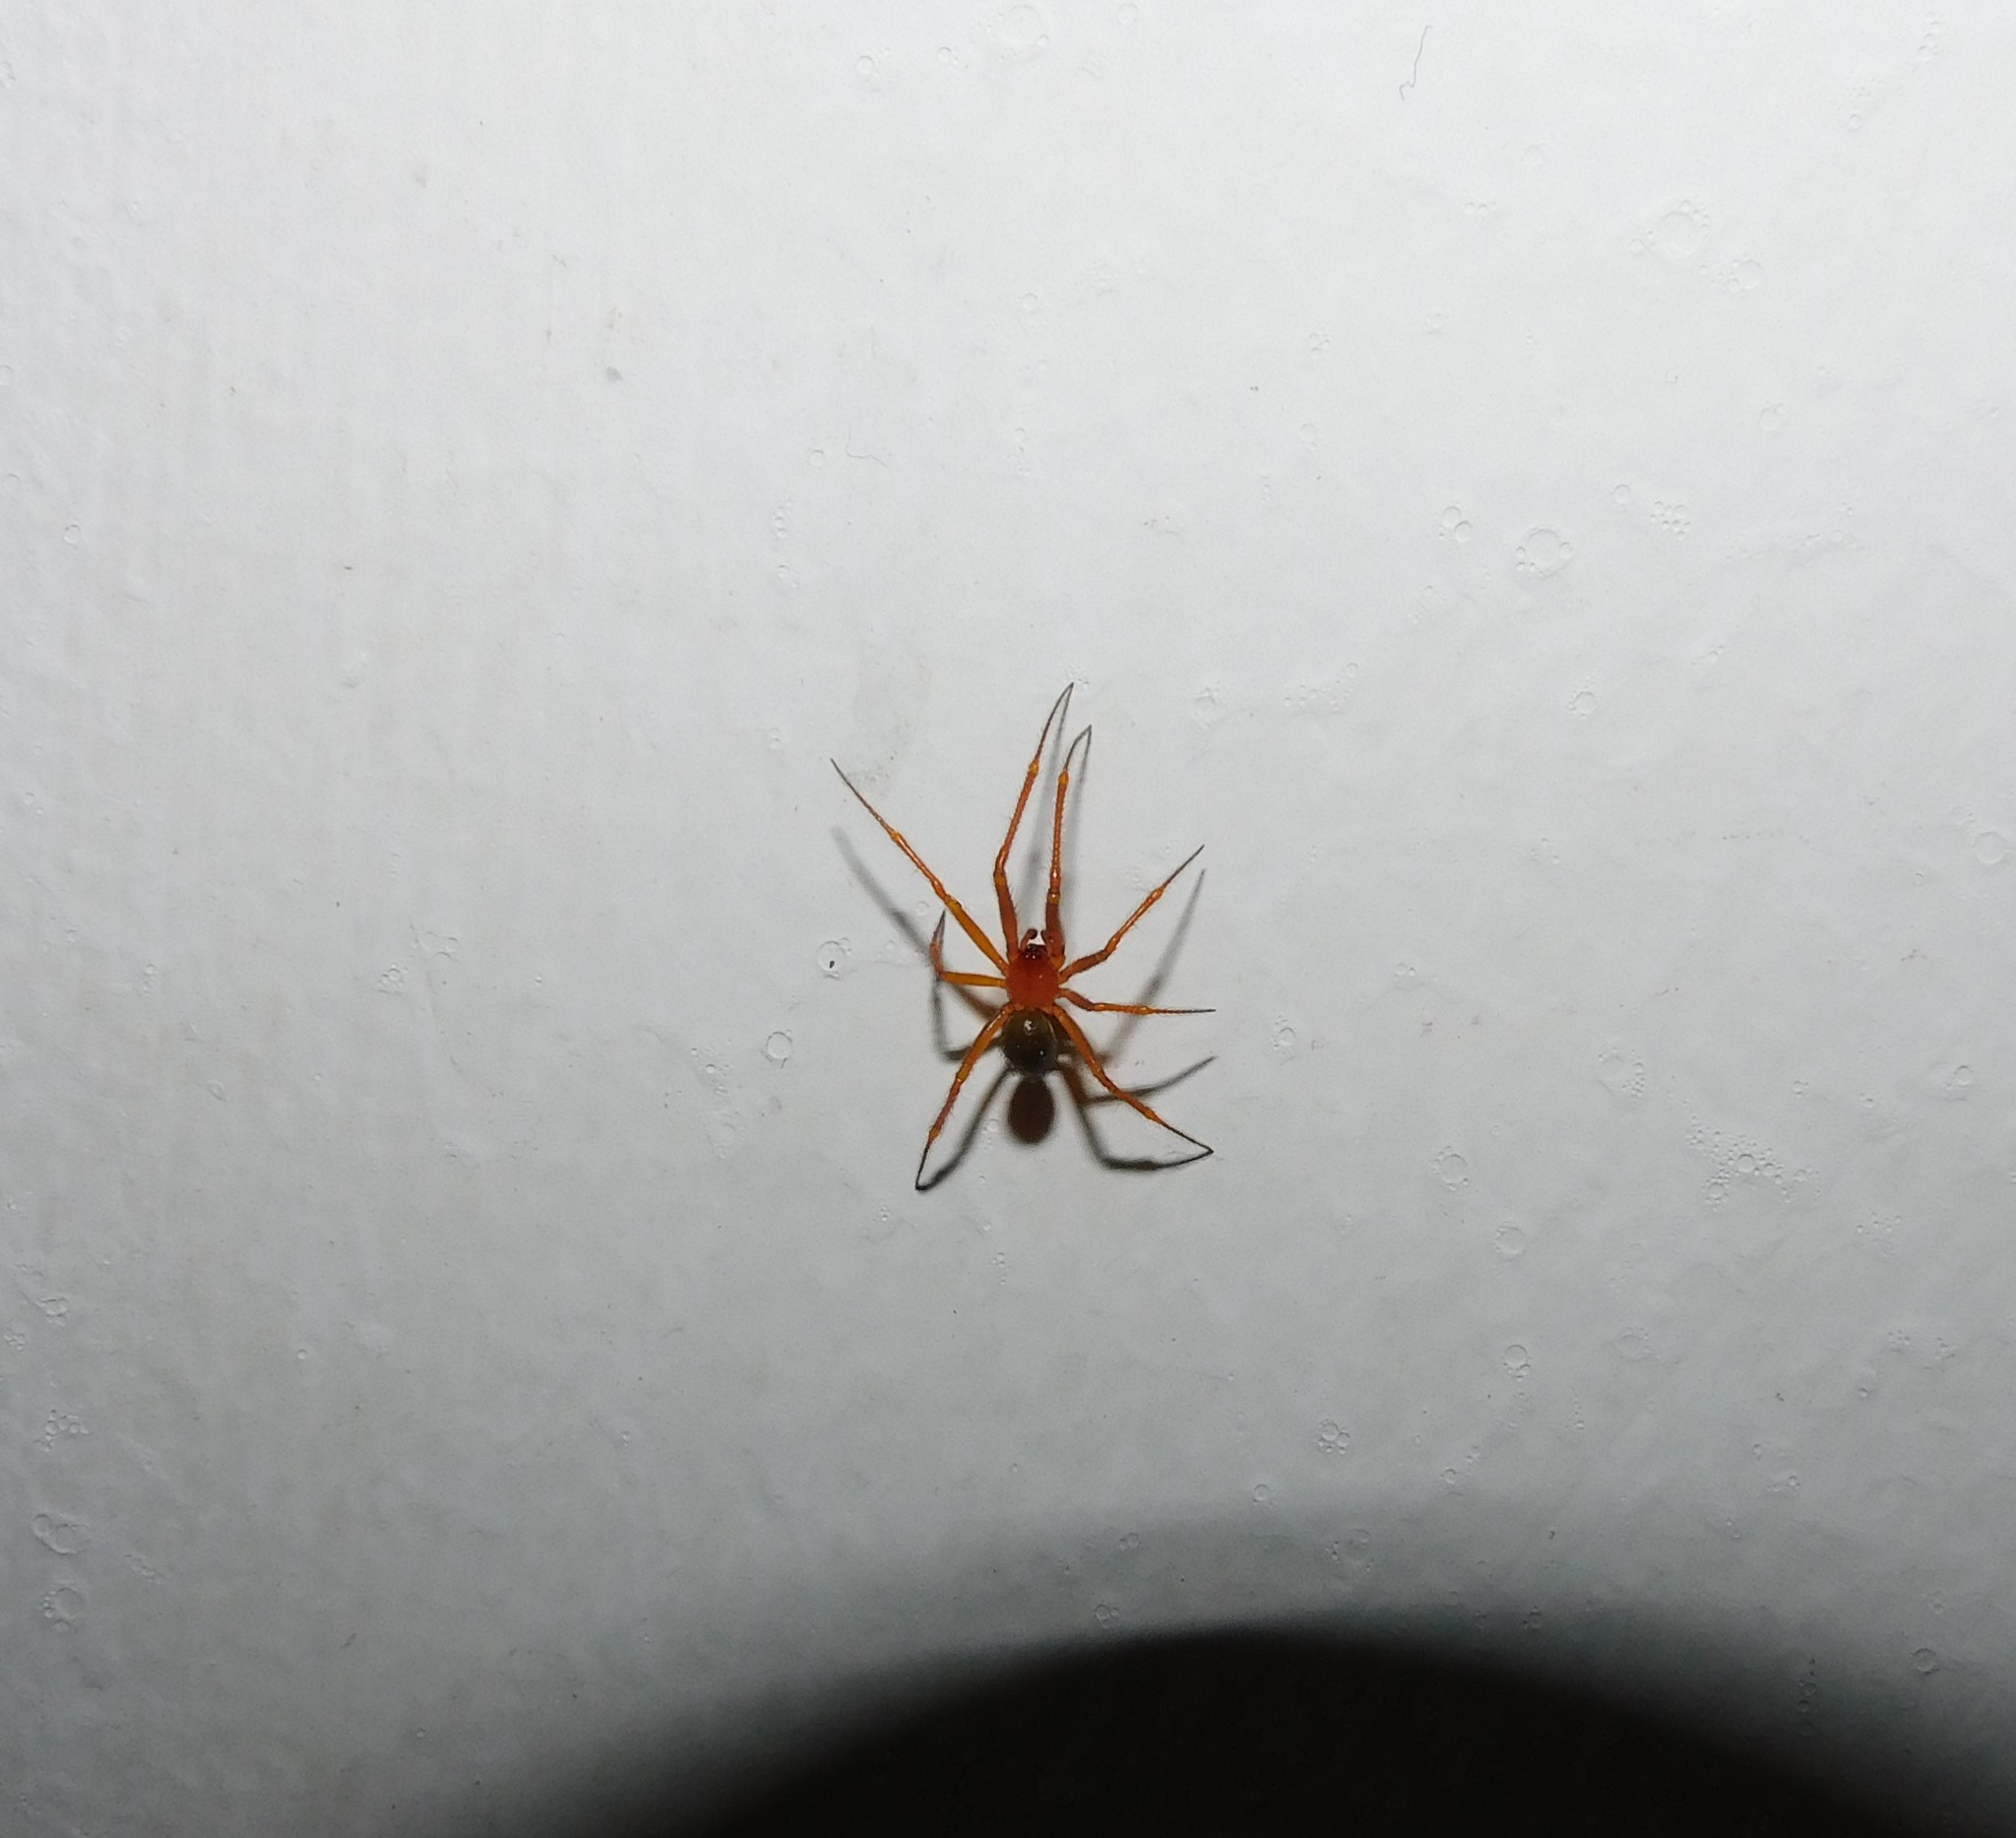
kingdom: Animalia
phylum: Arthropoda
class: Arachnida
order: Araneae
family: Theridiidae
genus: Nesticodes
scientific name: Nesticodes rufipes
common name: Cobweb spiders
